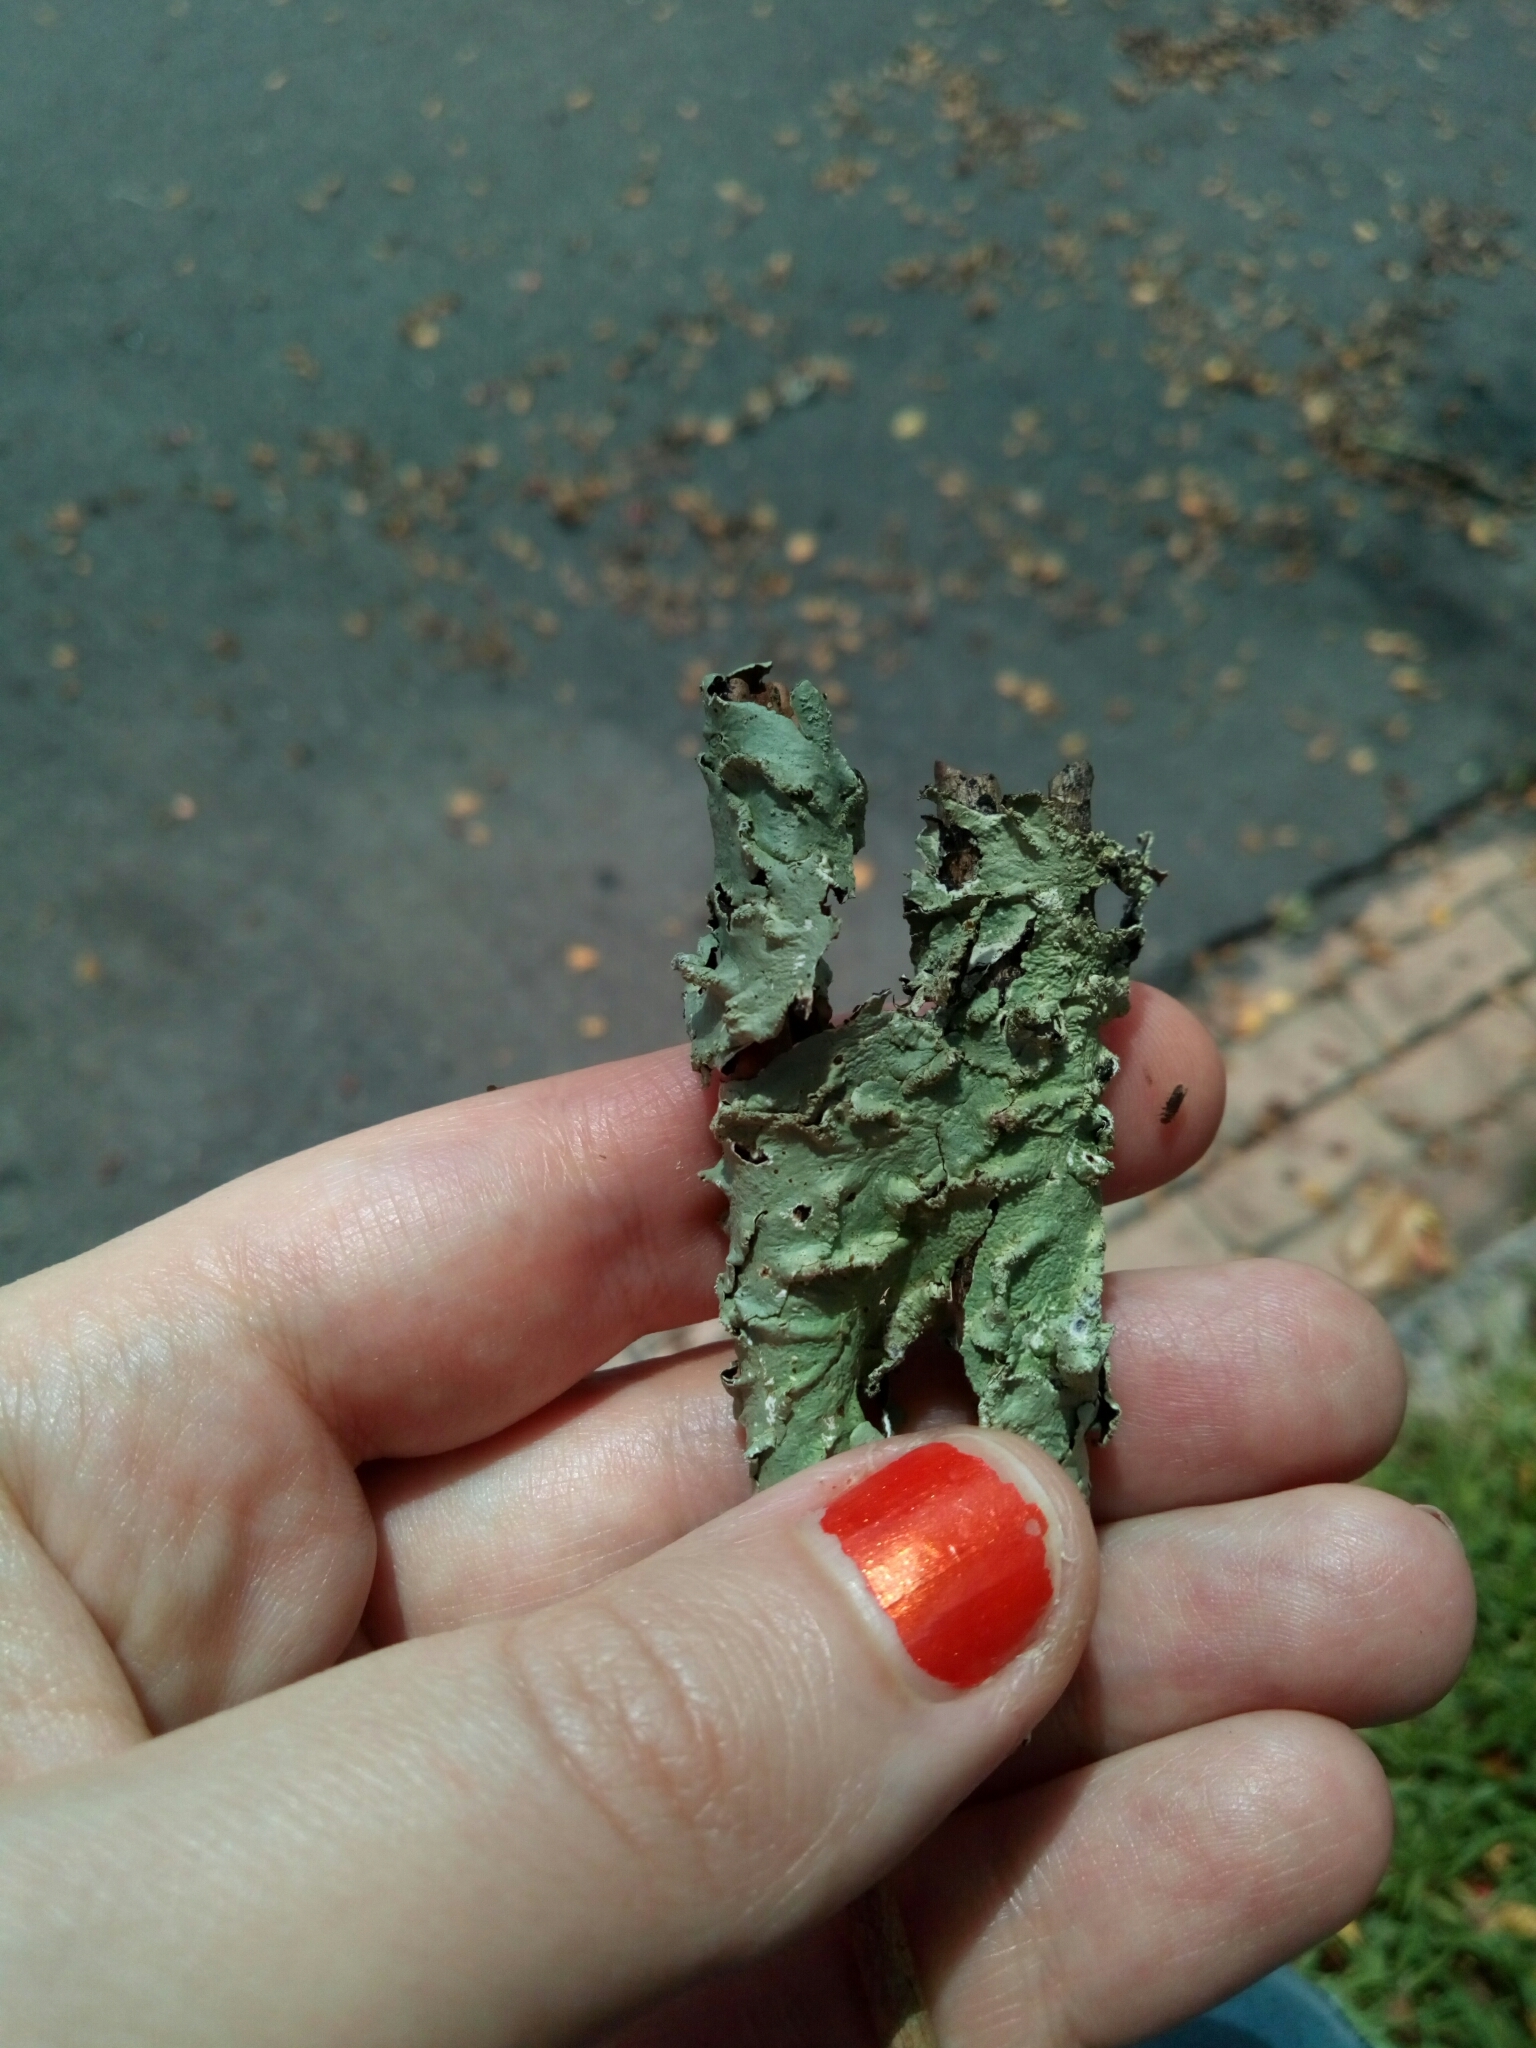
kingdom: Fungi
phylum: Ascomycota
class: Lecanoromycetes
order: Lecanorales
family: Parmeliaceae
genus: Flavoparmelia
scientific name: Flavoparmelia caperata
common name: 40-mile per hour lichen
